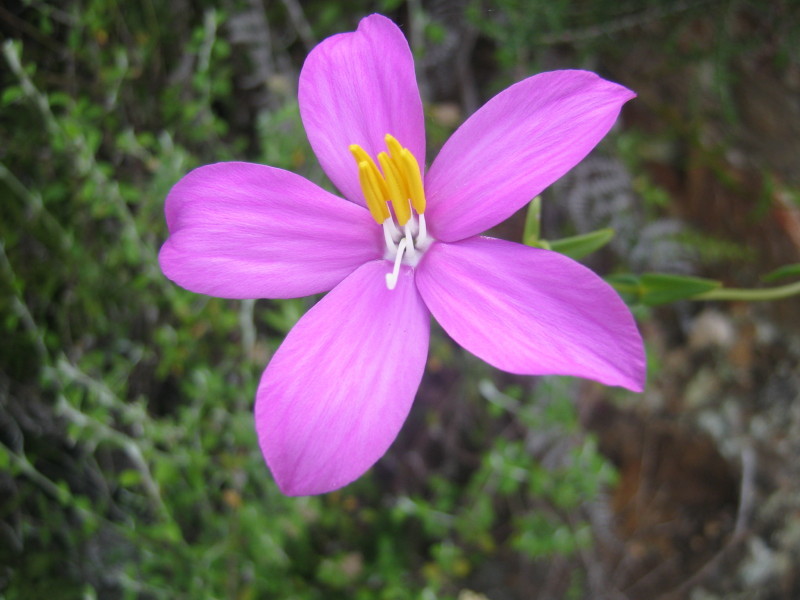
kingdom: Plantae
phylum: Tracheophyta
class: Magnoliopsida
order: Gentianales
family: Gentianaceae
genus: Chironia
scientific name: Chironia melampyrifolia
